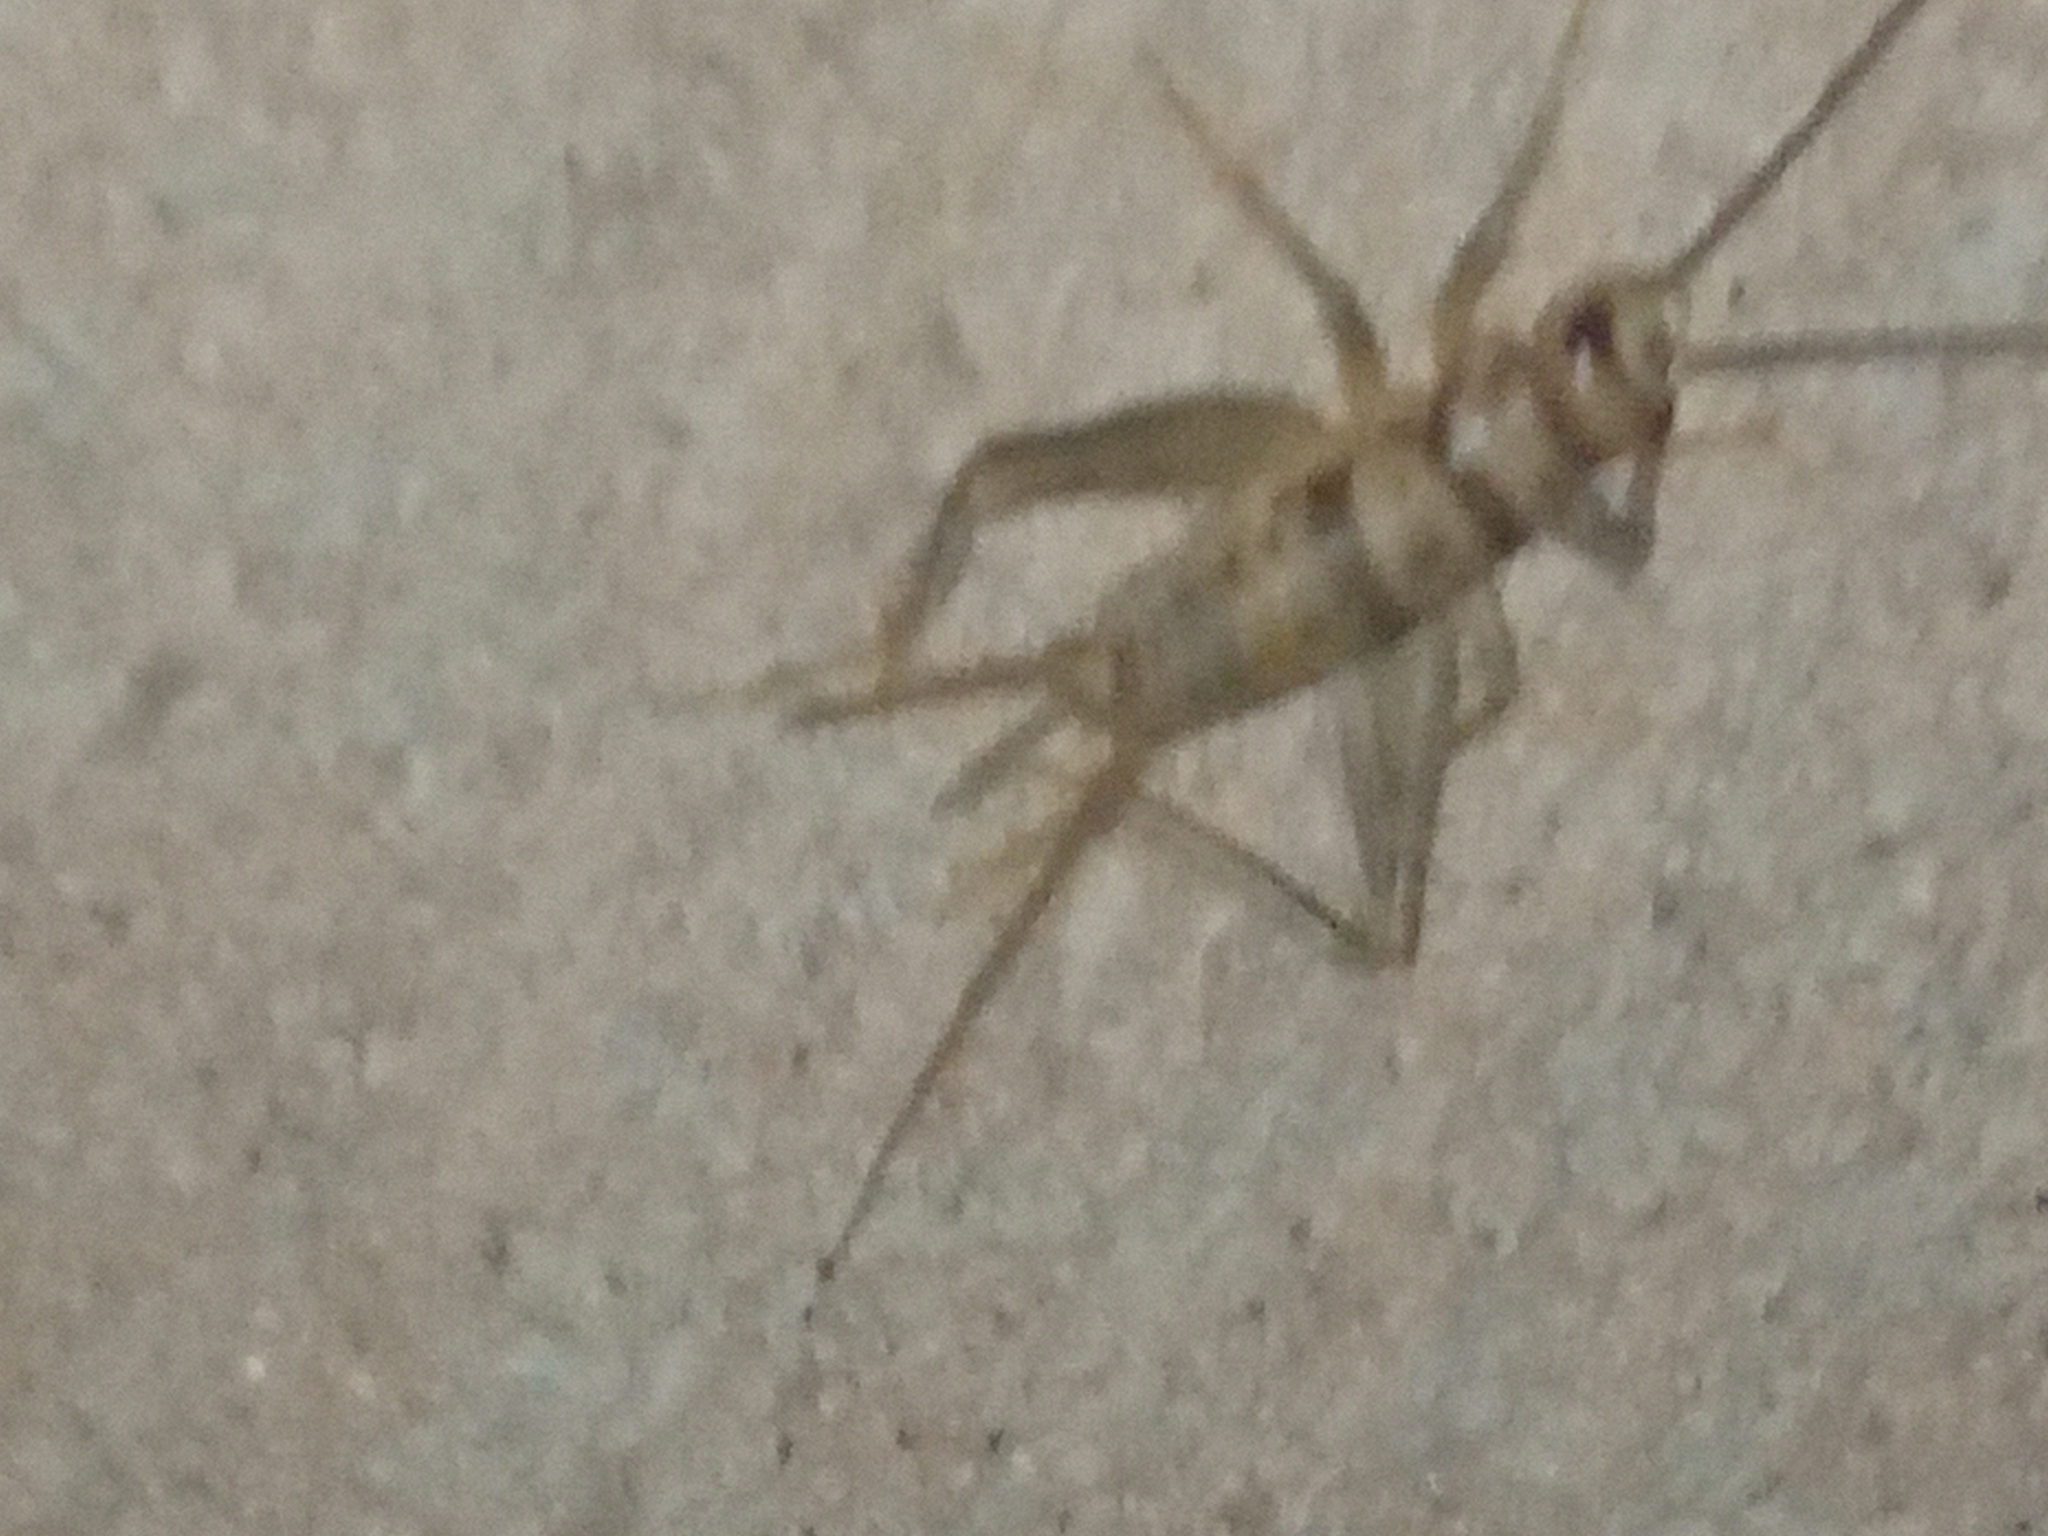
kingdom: Animalia
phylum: Arthropoda
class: Insecta
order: Orthoptera
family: Gryllidae
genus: Gryllodes
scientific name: Gryllodes sigillatus
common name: Tropical house cricket
